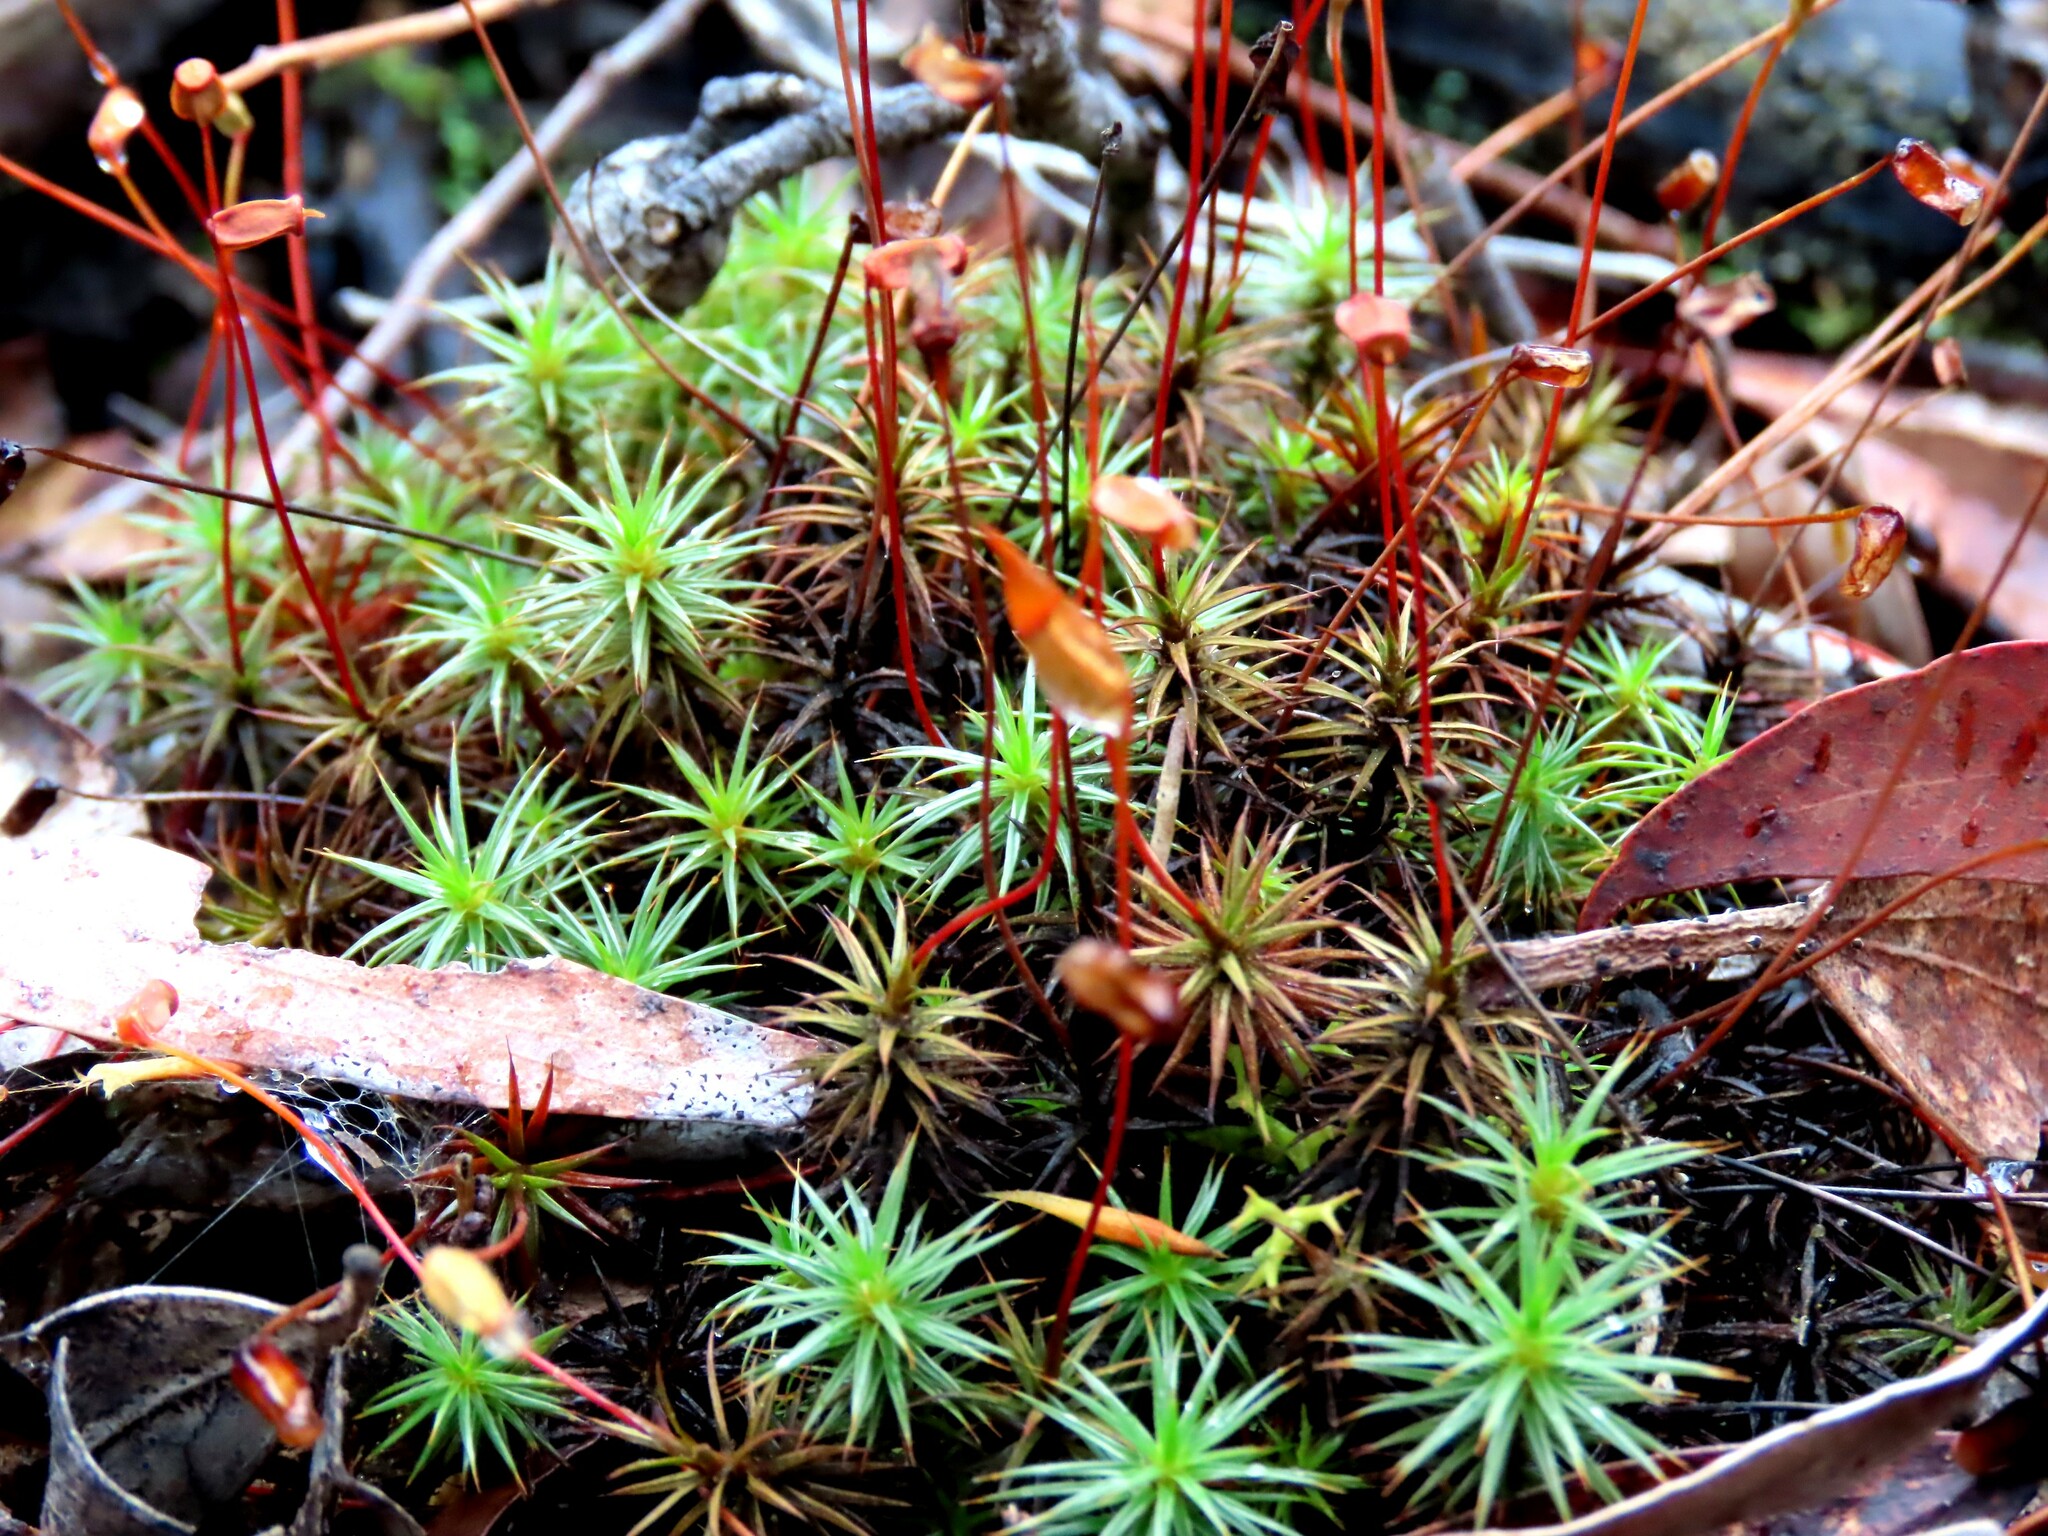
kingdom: Plantae
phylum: Bryophyta
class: Polytrichopsida
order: Polytrichales
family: Polytrichaceae
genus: Polytrichum
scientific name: Polytrichum juniperinum
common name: Juniper haircap moss
